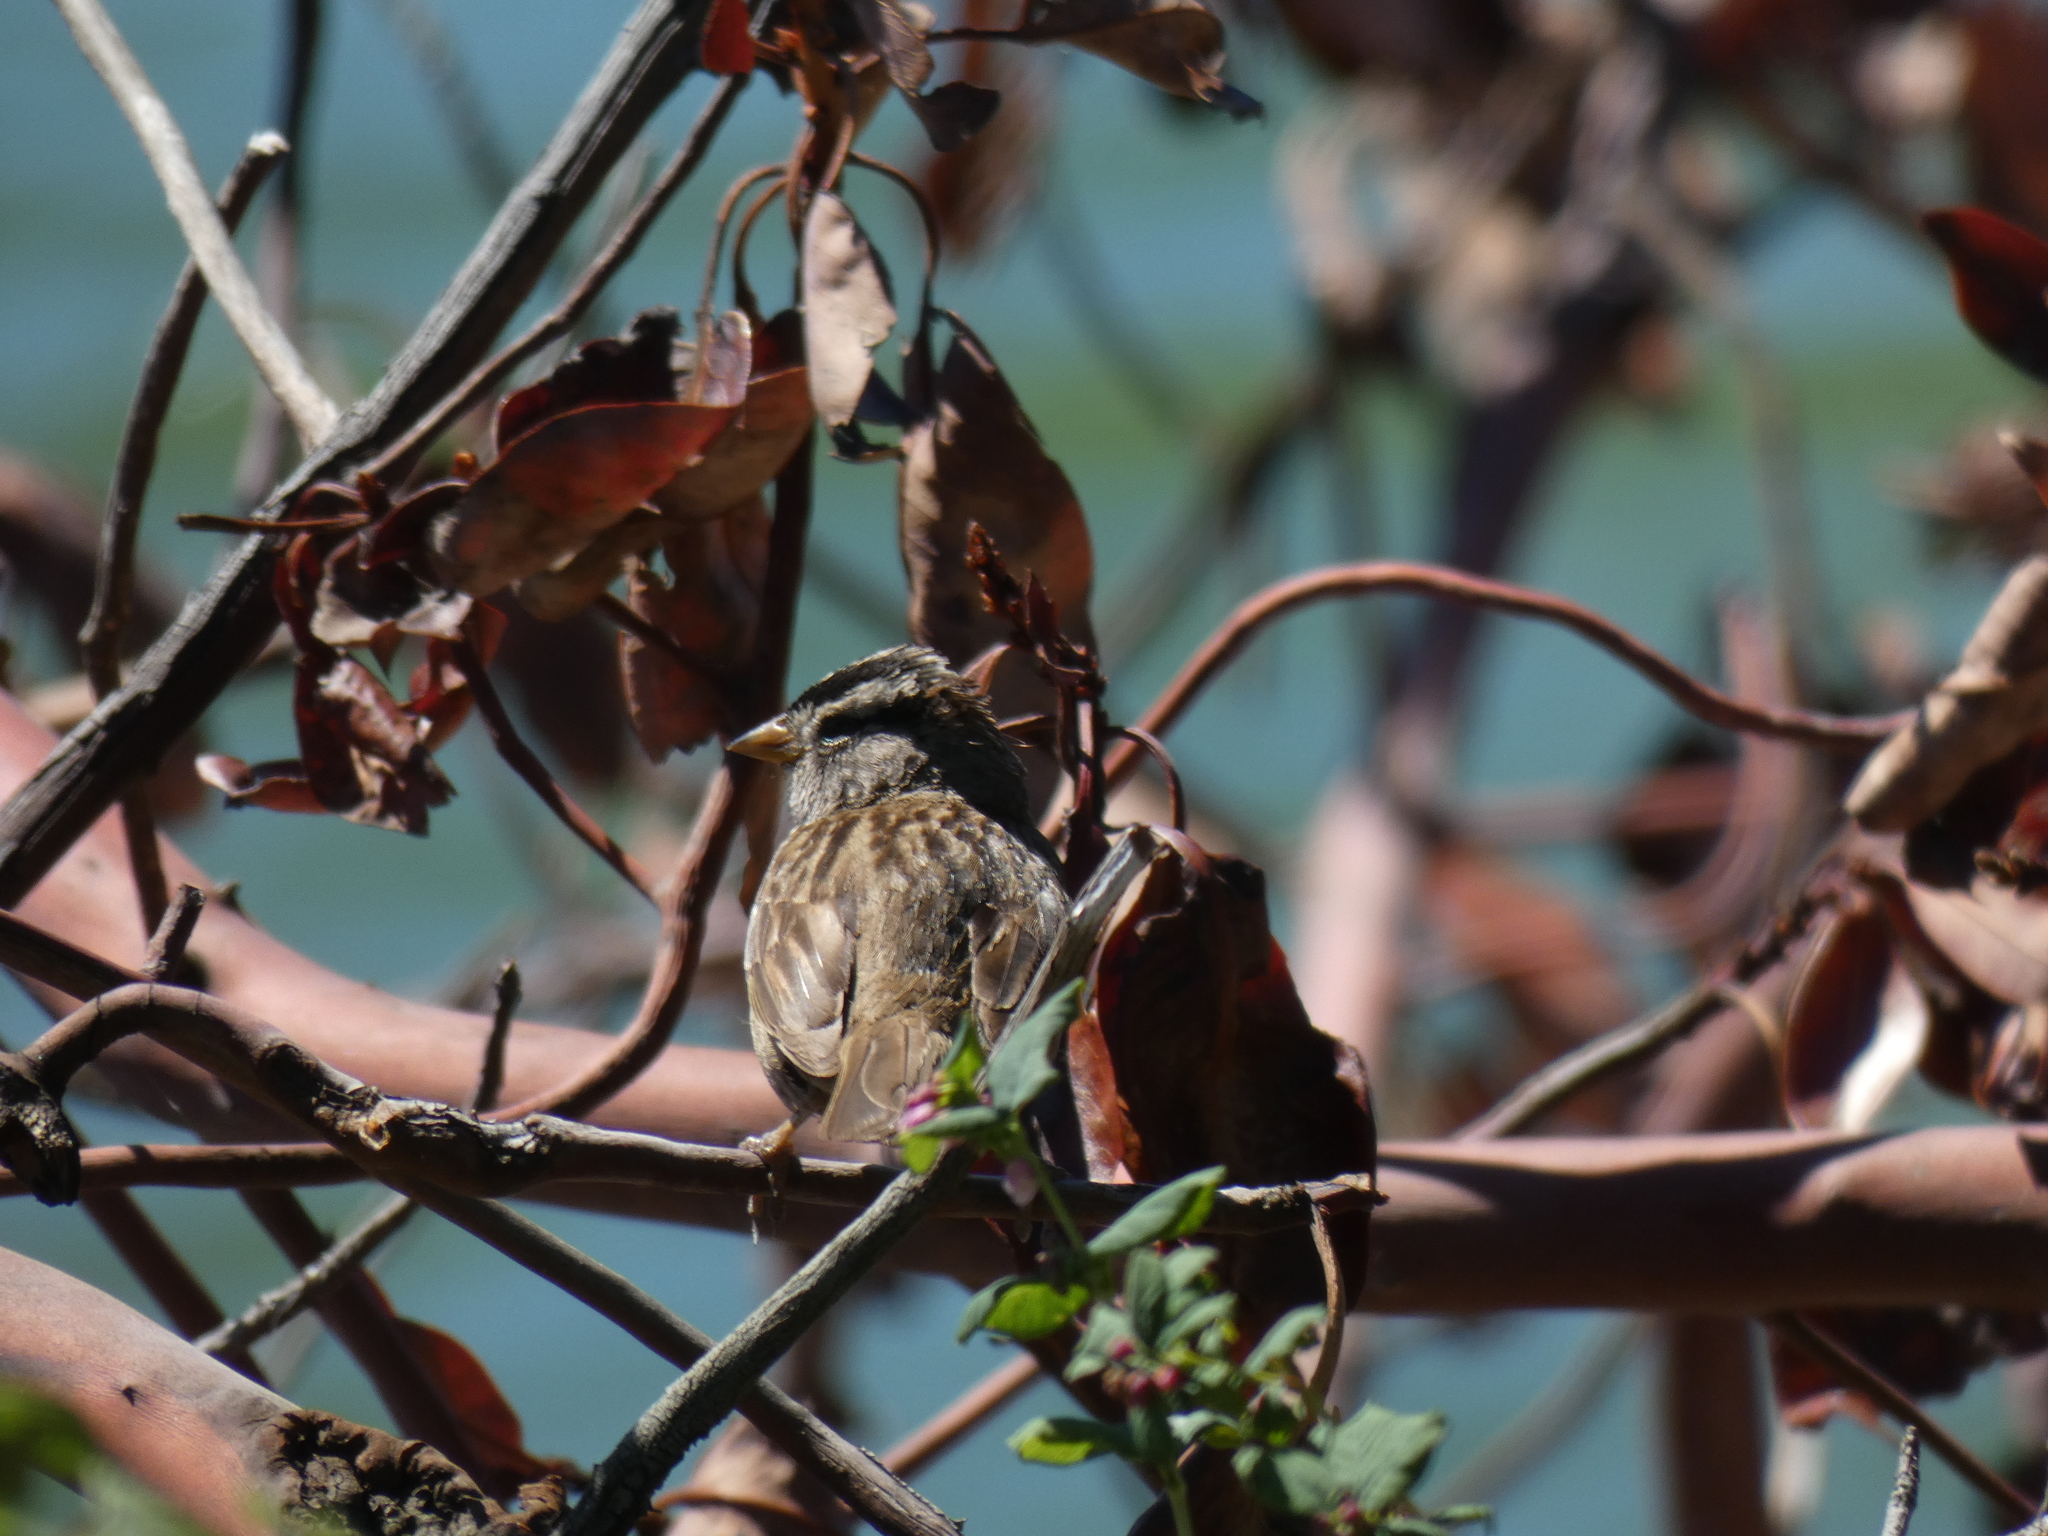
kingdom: Animalia
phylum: Chordata
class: Aves
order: Passeriformes
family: Passerellidae
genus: Zonotrichia
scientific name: Zonotrichia leucophrys
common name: White-crowned sparrow
